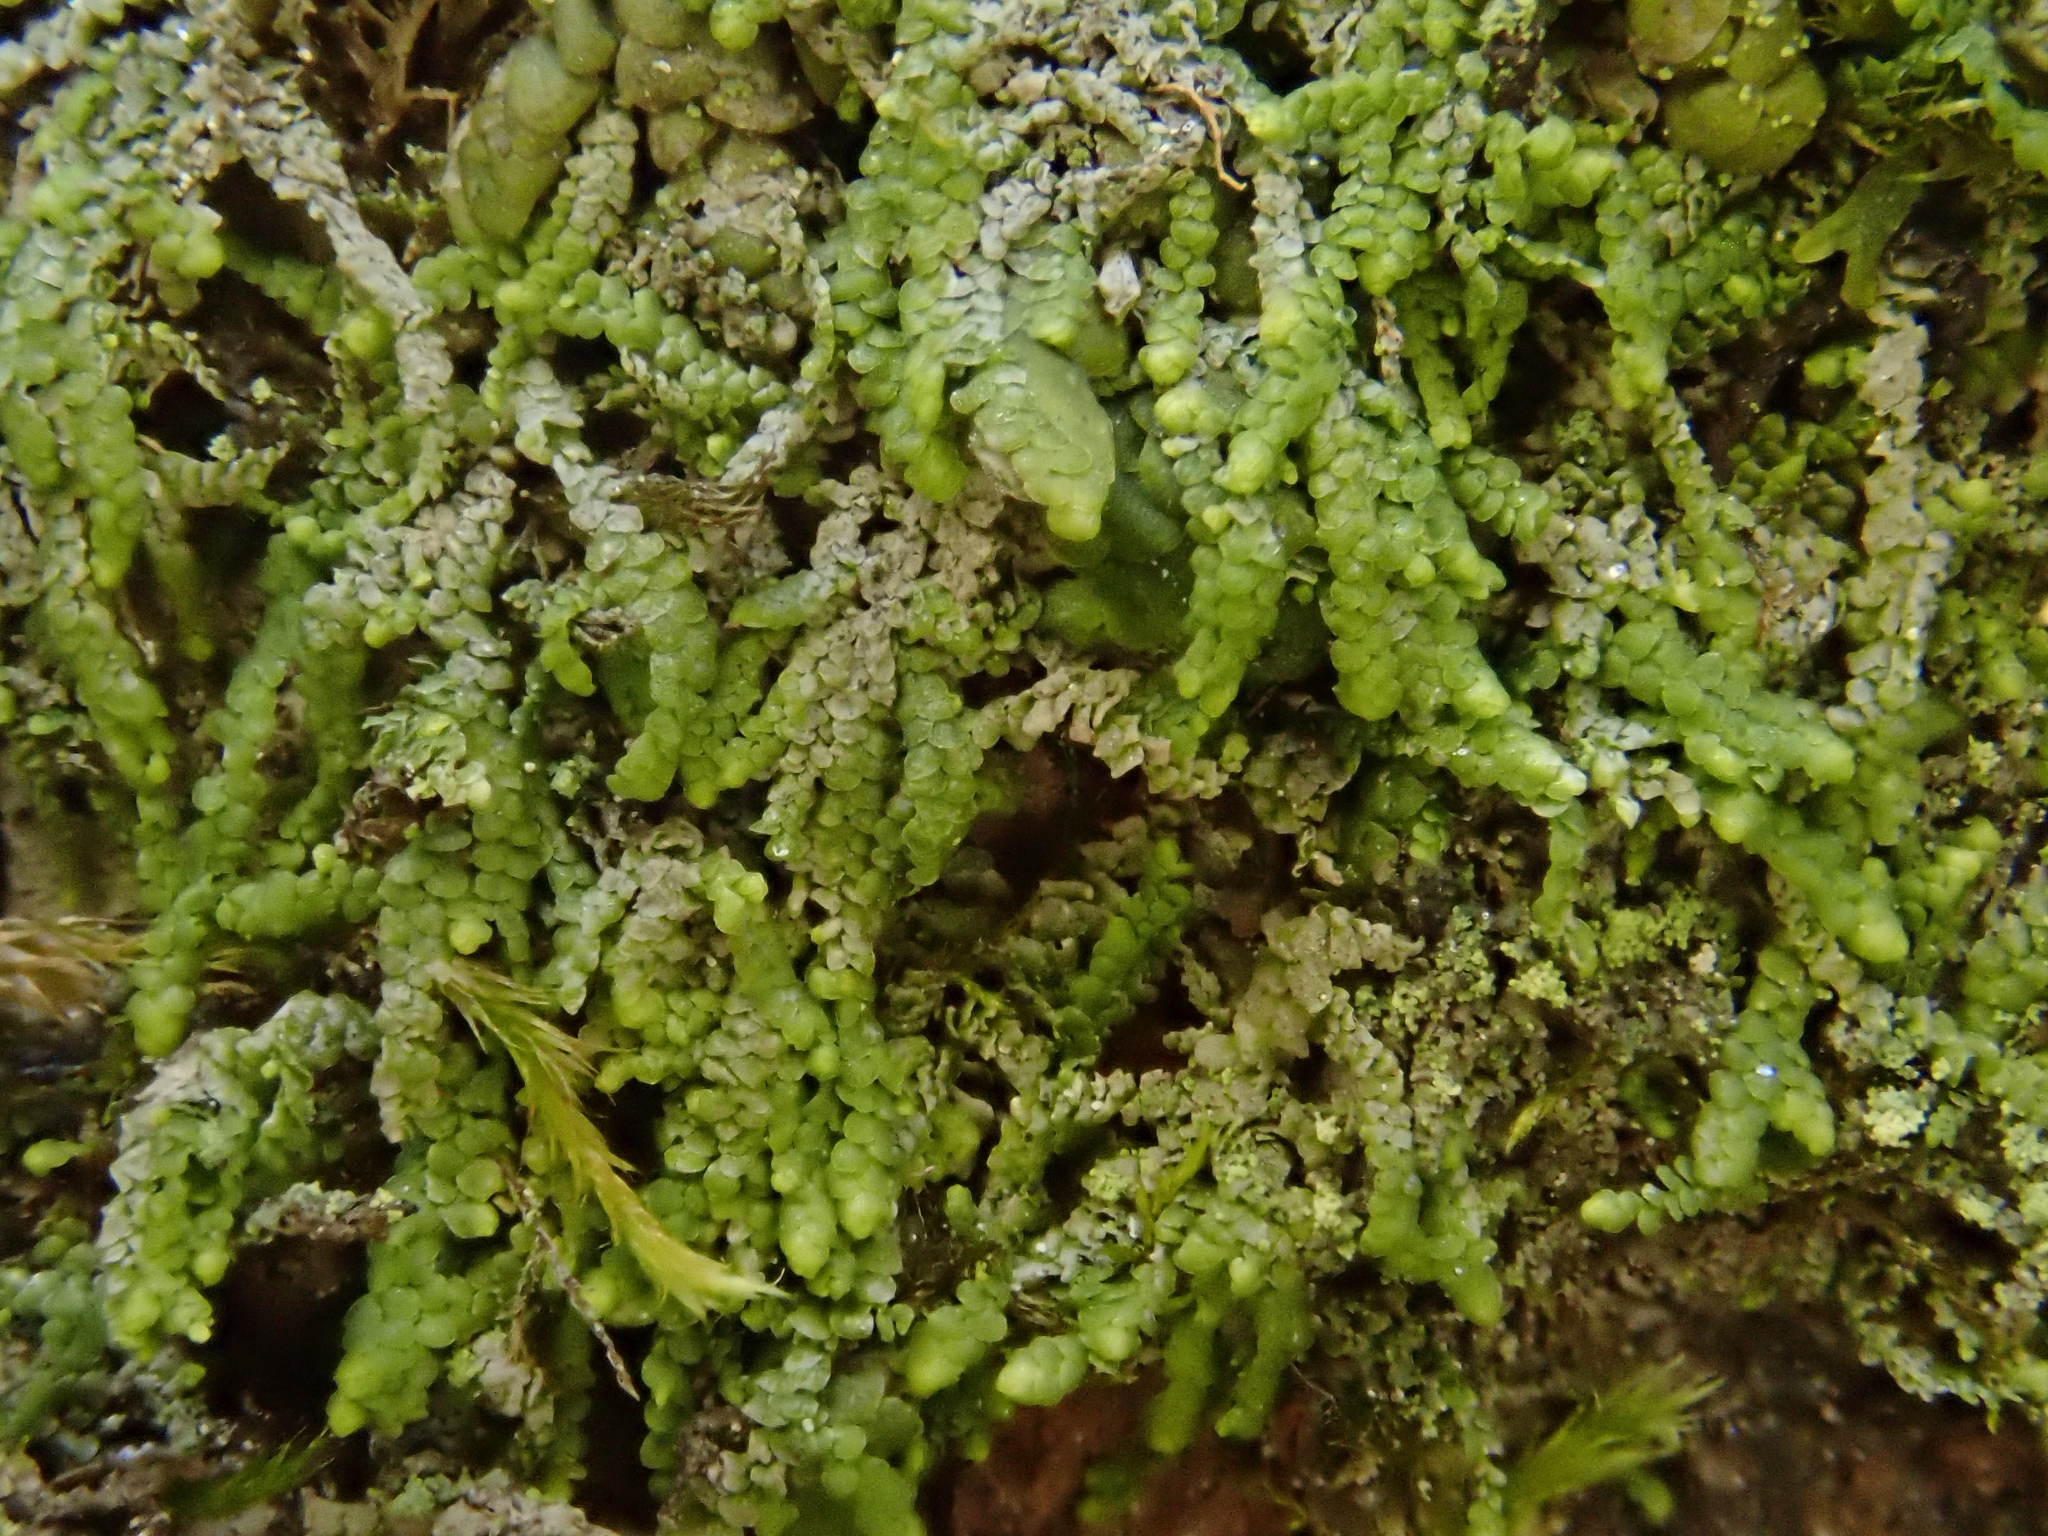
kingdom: Plantae
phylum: Marchantiophyta
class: Jungermanniopsida
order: Porellales
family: Lejeuneaceae
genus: Lejeunea
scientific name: Lejeunea cavifolia
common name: Least pouncewort
